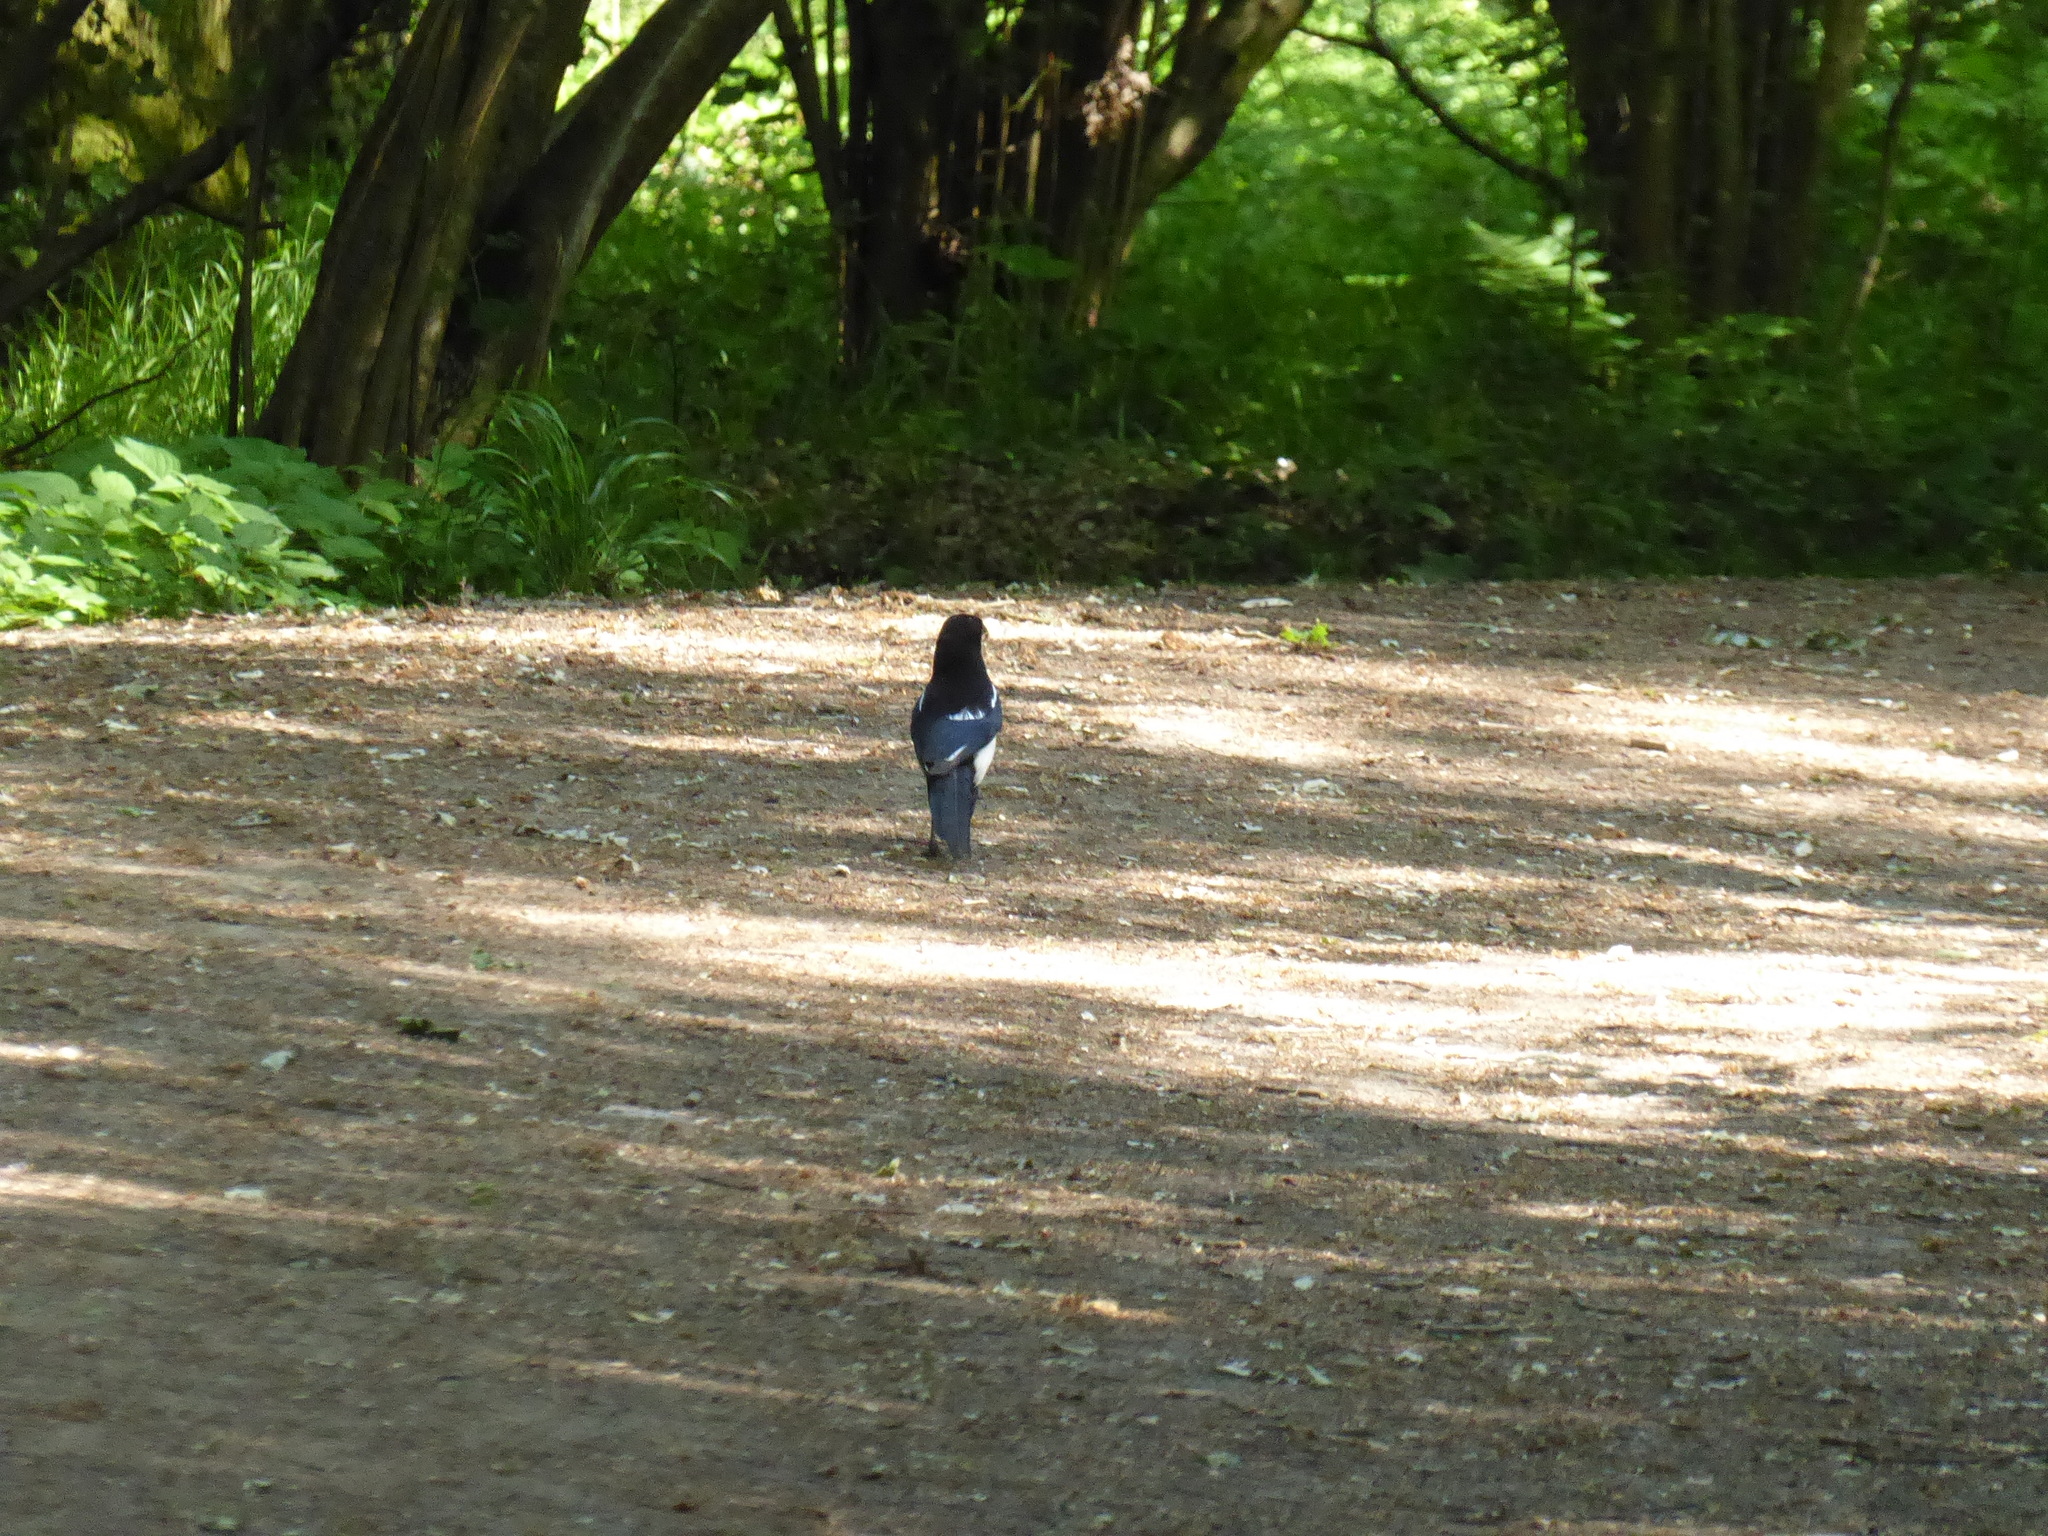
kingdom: Animalia
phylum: Chordata
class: Aves
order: Passeriformes
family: Corvidae
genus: Pica
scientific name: Pica pica
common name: Eurasian magpie
